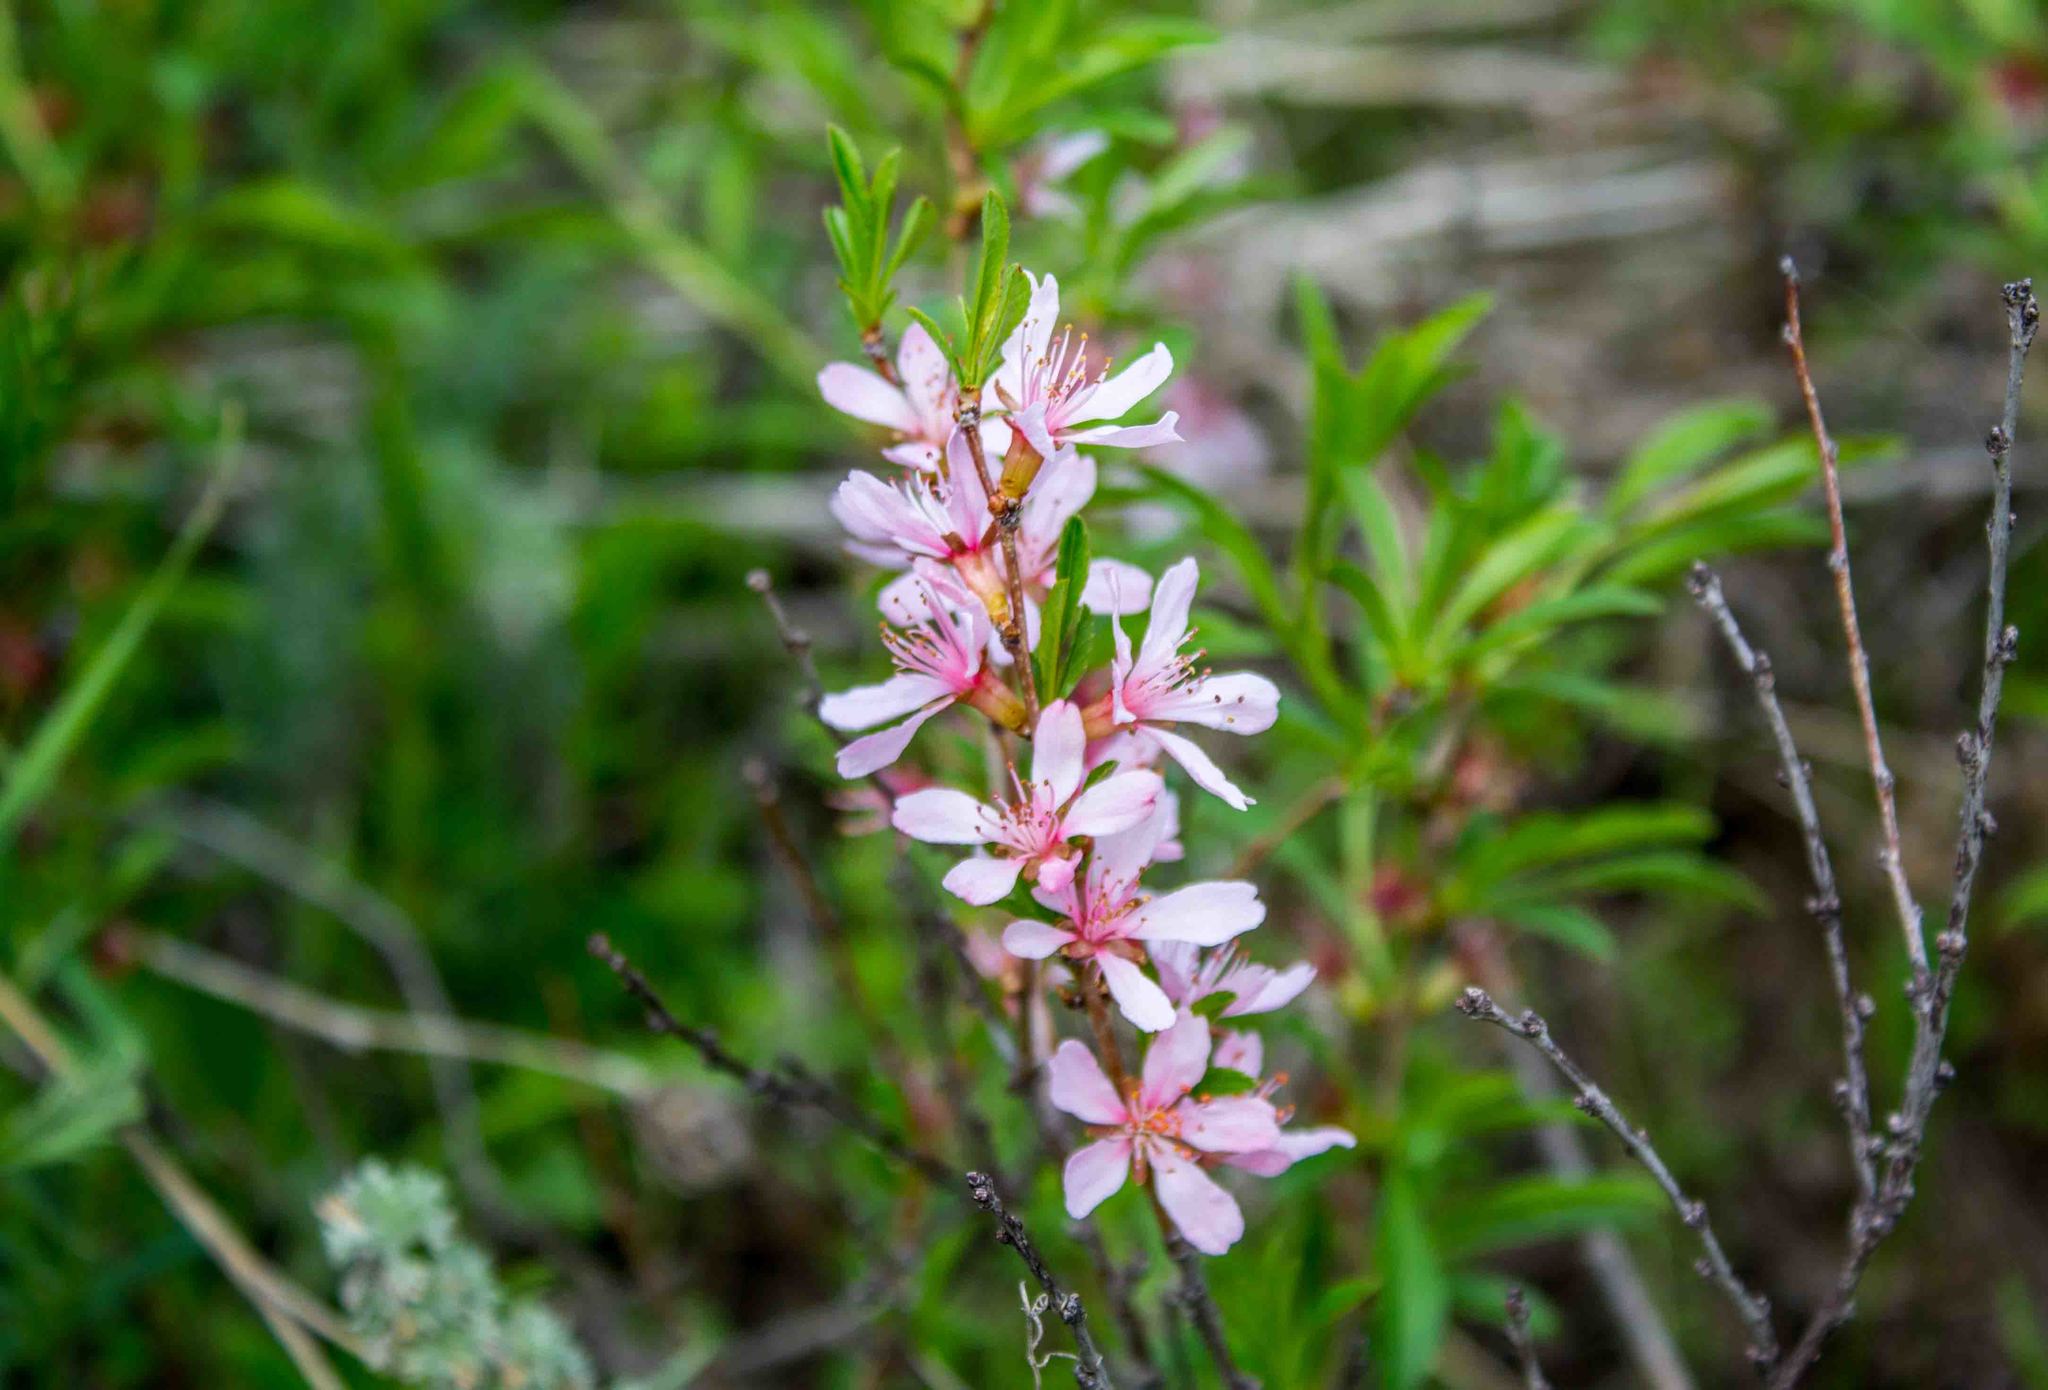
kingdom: Plantae
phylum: Tracheophyta
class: Magnoliopsida
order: Rosales
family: Rosaceae
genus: Prunus
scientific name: Prunus tenella
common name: Dwarf russian almond
